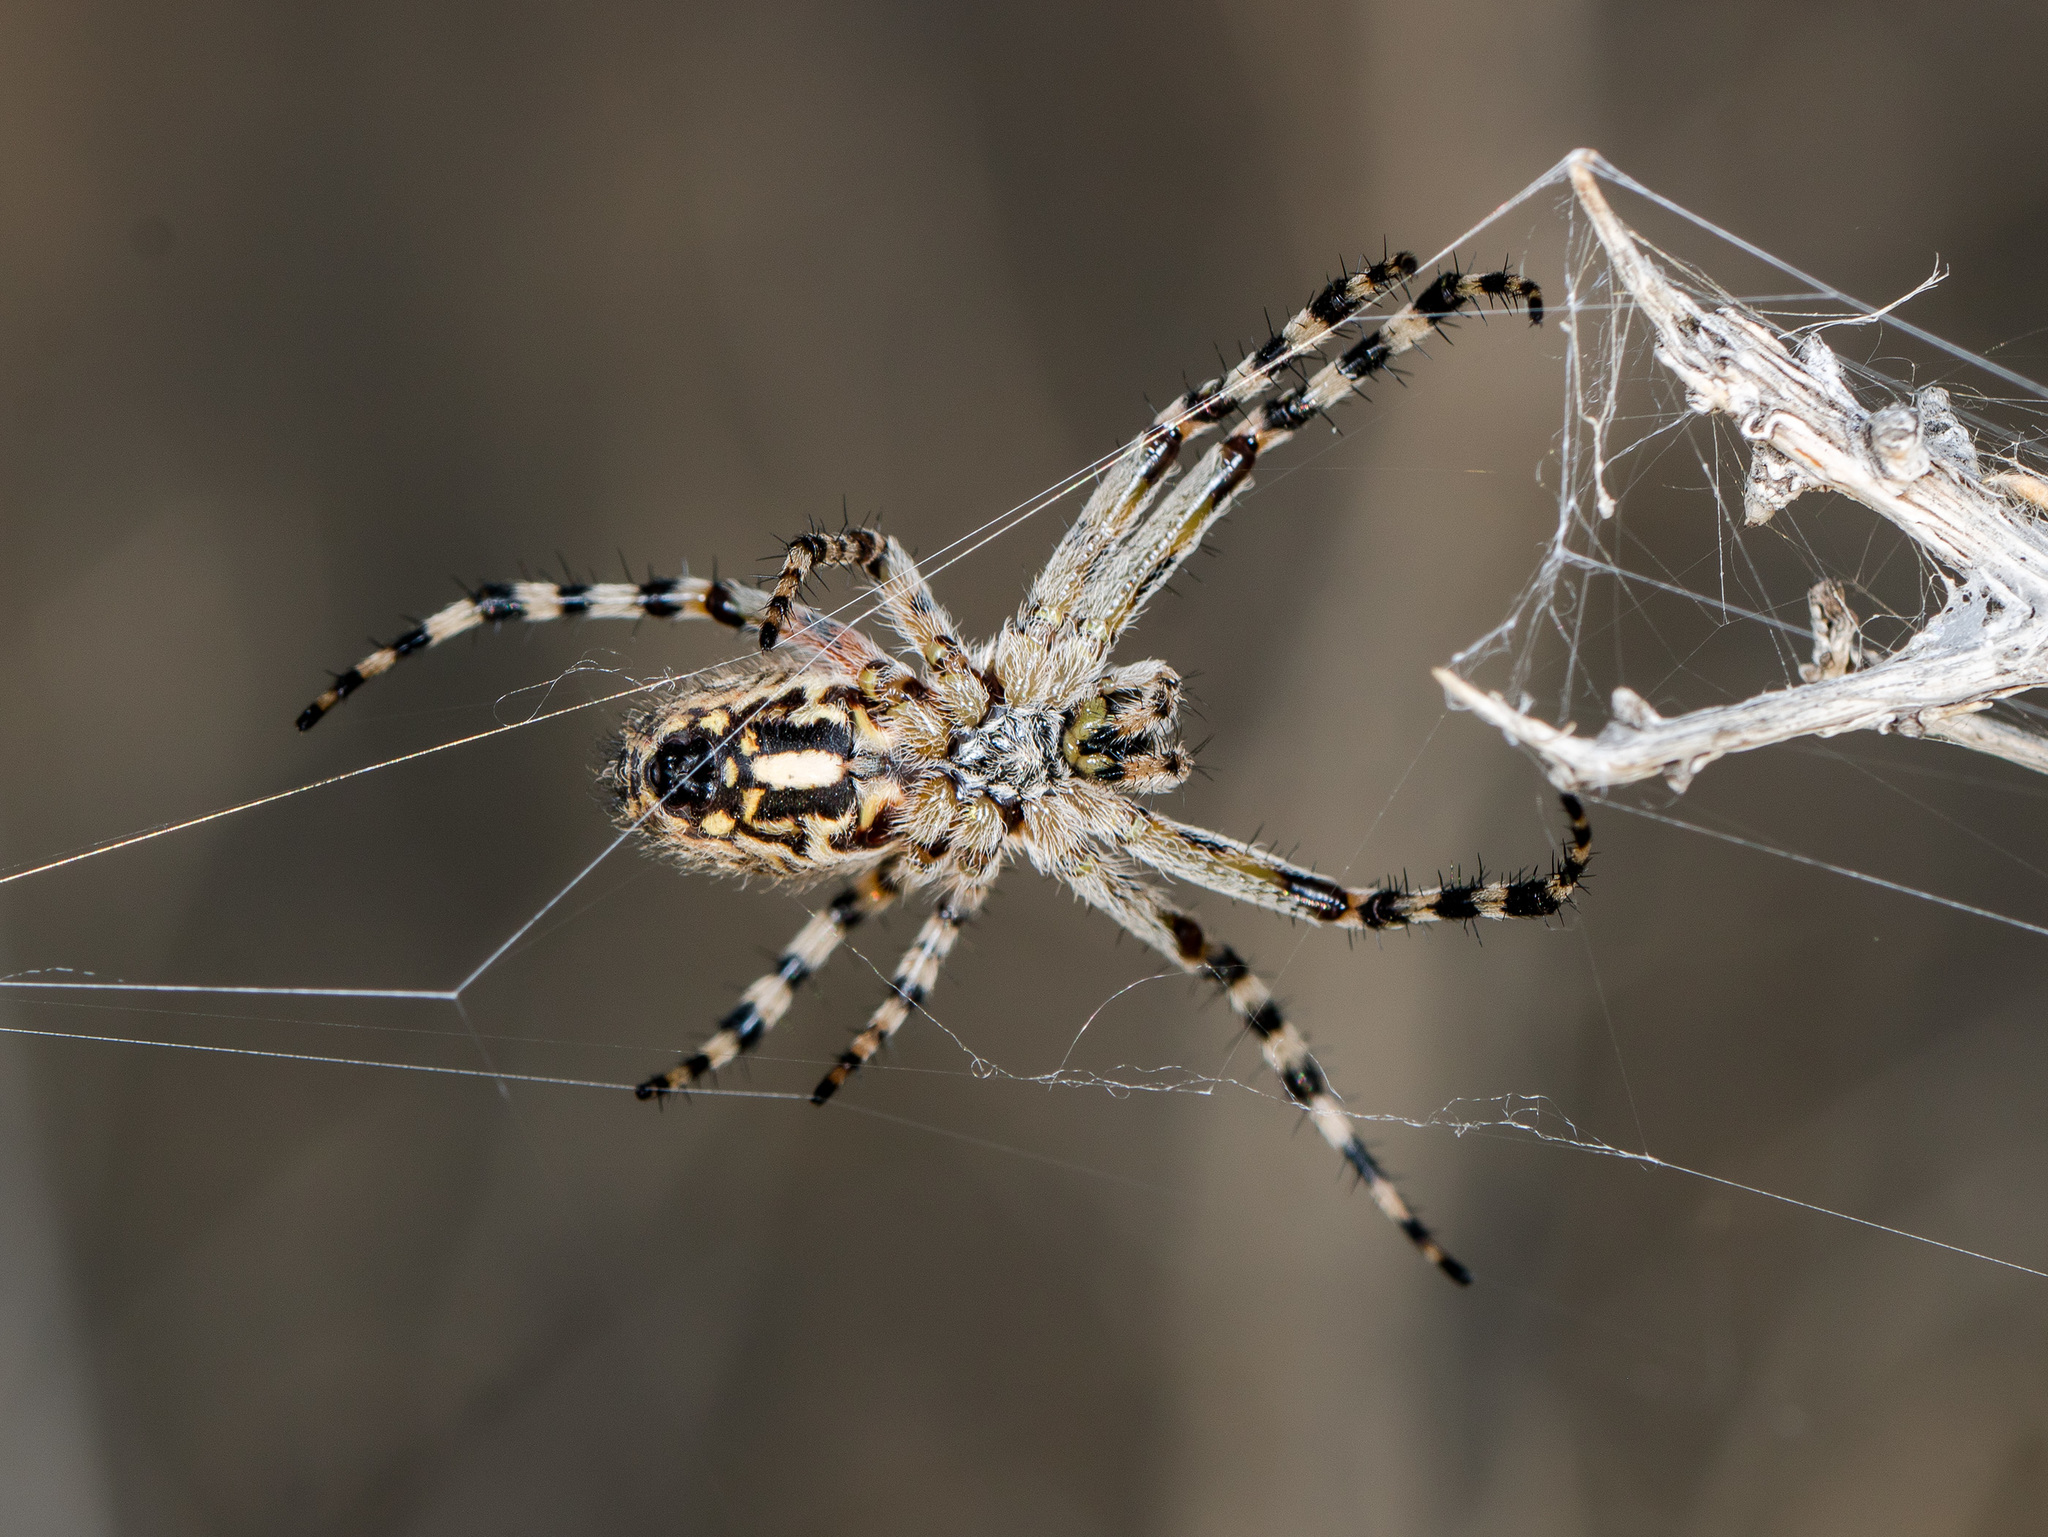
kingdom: Animalia
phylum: Arthropoda
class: Arachnida
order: Araneae
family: Araneidae
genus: Aculepeira
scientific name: Aculepeira armida
